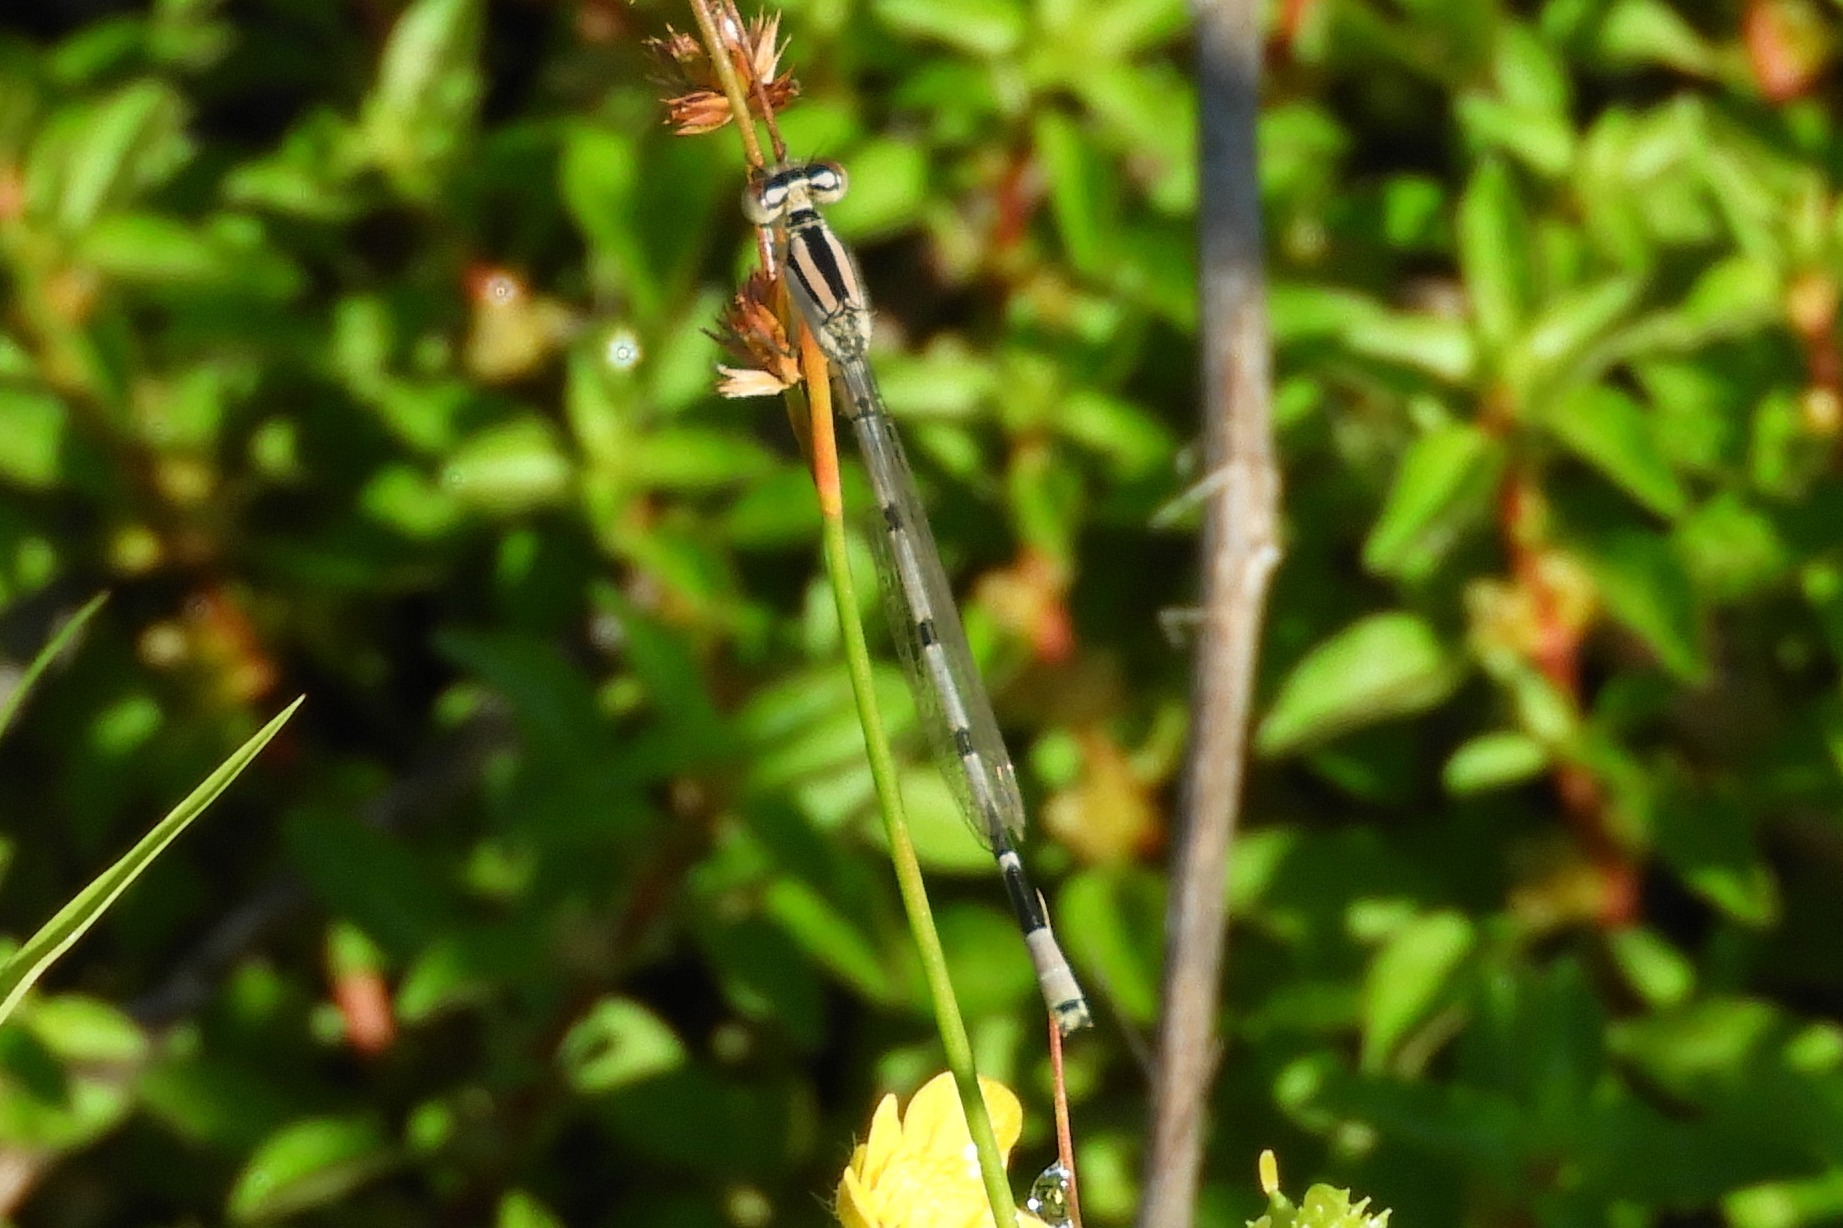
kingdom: Animalia
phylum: Arthropoda
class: Insecta
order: Odonata
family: Coenagrionidae
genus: Enallagma
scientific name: Enallagma civile
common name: Damselfly
